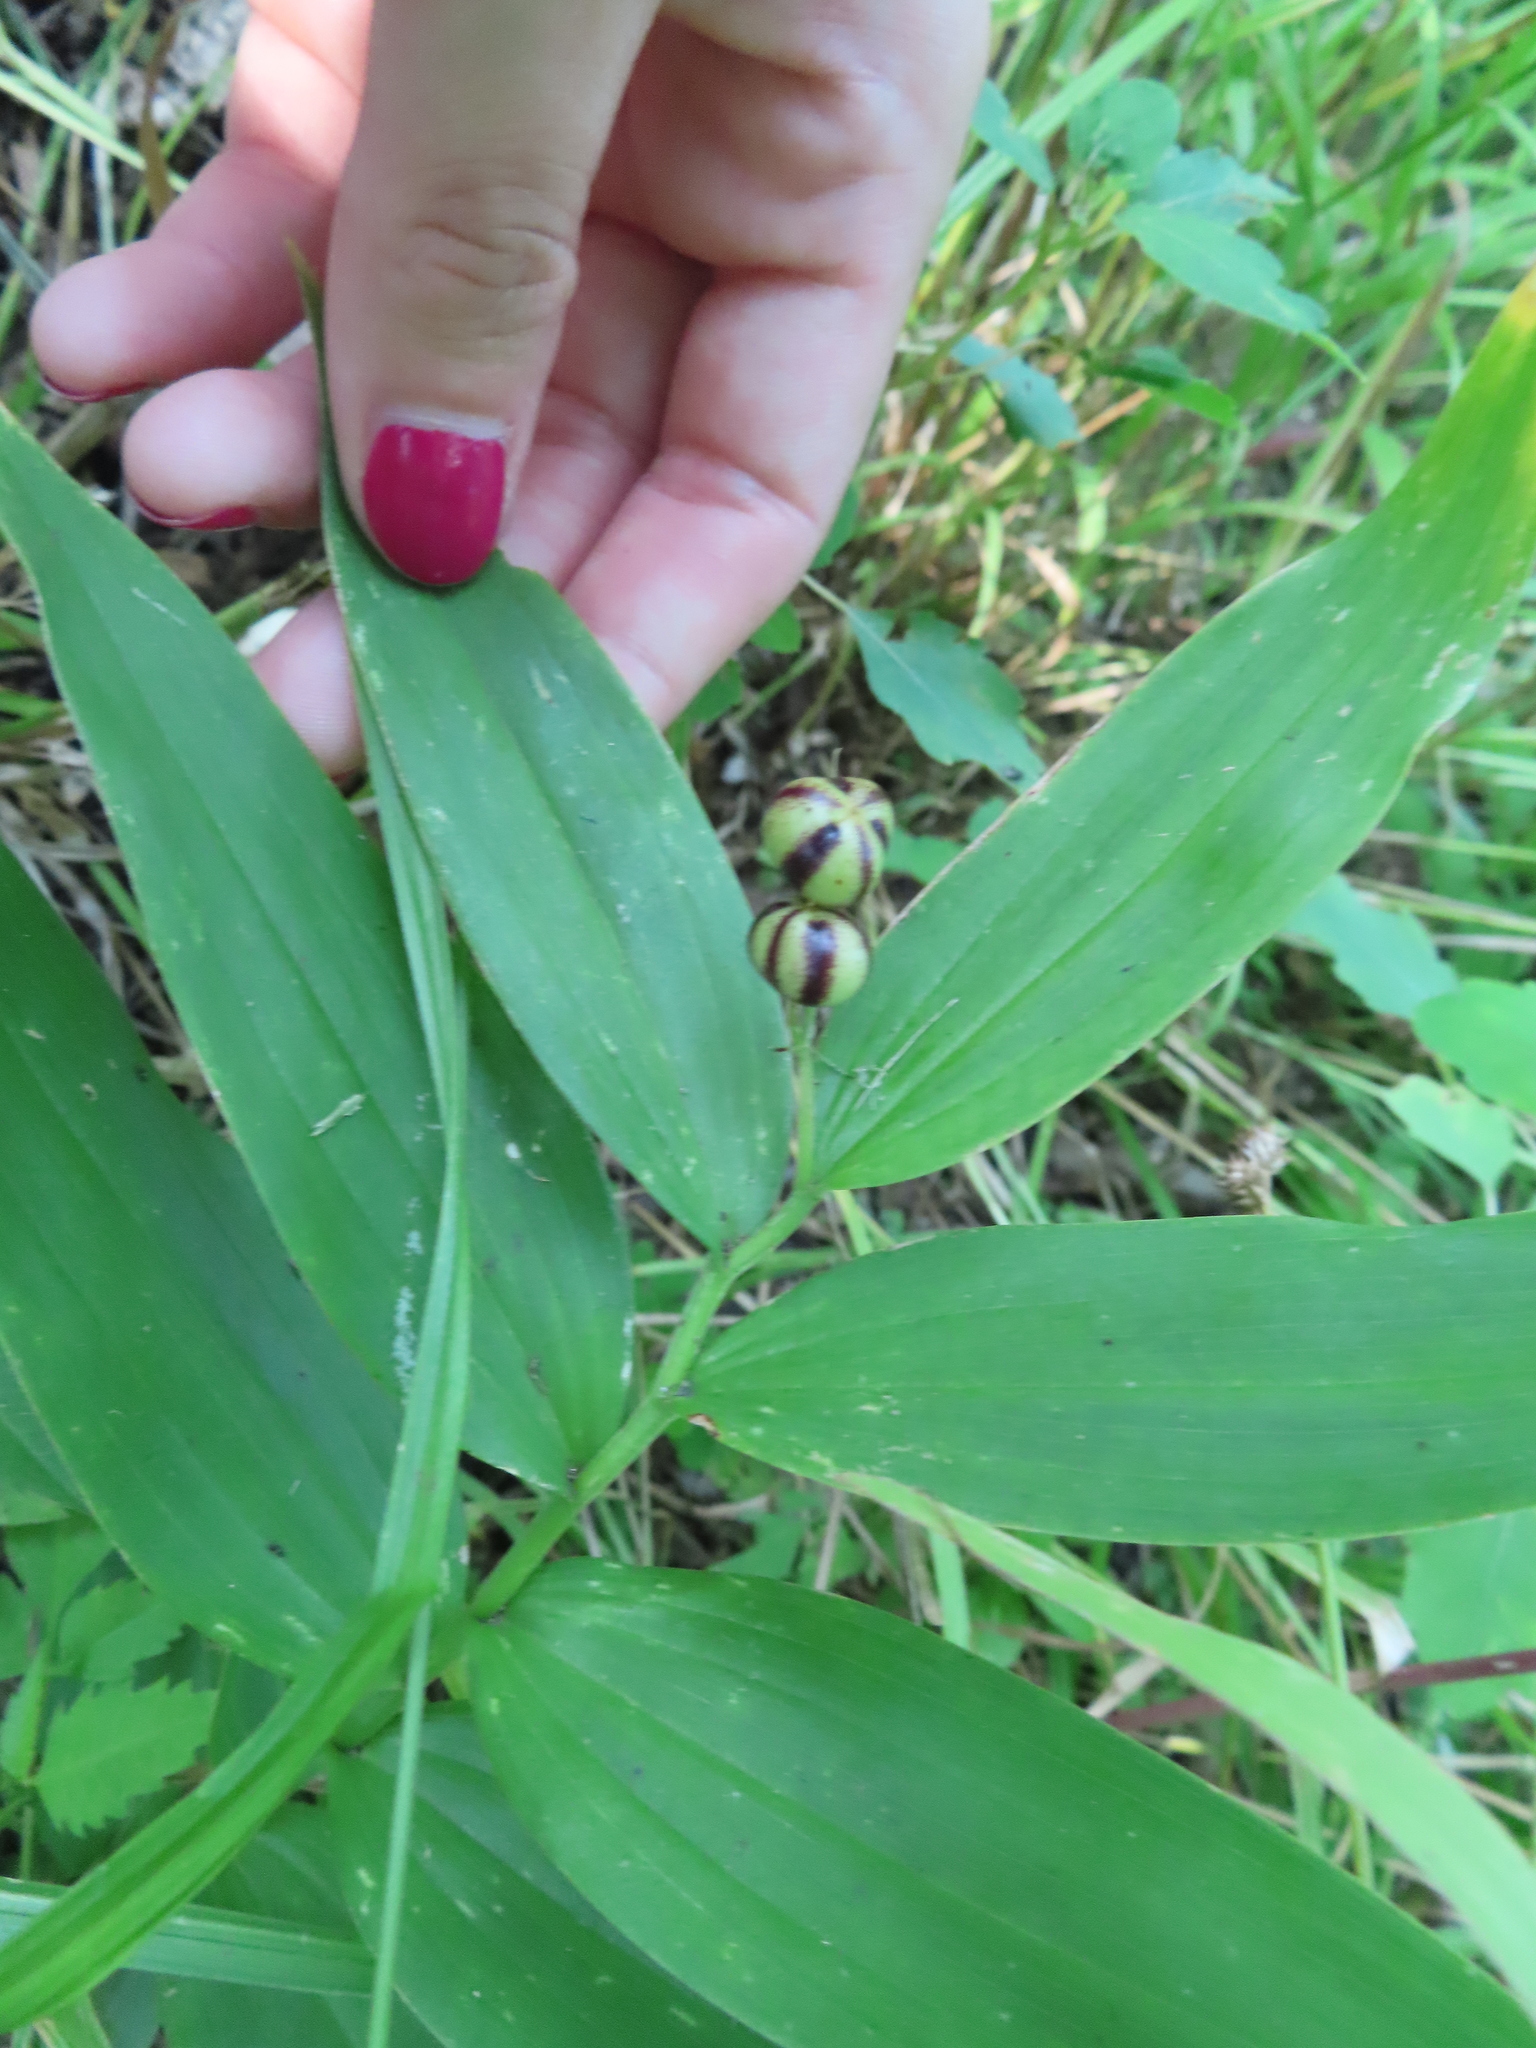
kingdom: Plantae
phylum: Tracheophyta
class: Liliopsida
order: Asparagales
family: Asparagaceae
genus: Maianthemum
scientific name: Maianthemum stellatum
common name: Little false solomon's seal
